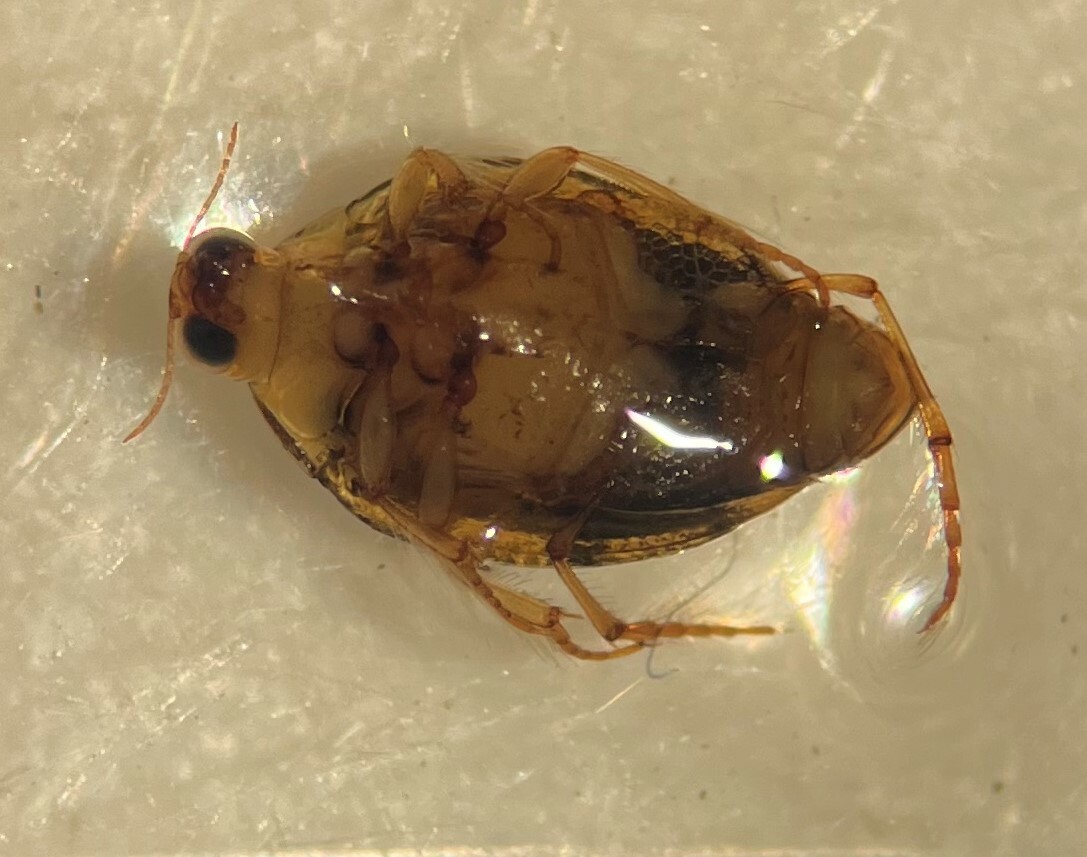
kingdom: Animalia
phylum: Arthropoda
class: Insecta
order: Coleoptera
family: Haliplidae
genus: Peltodytes
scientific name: Peltodytes litoralis
